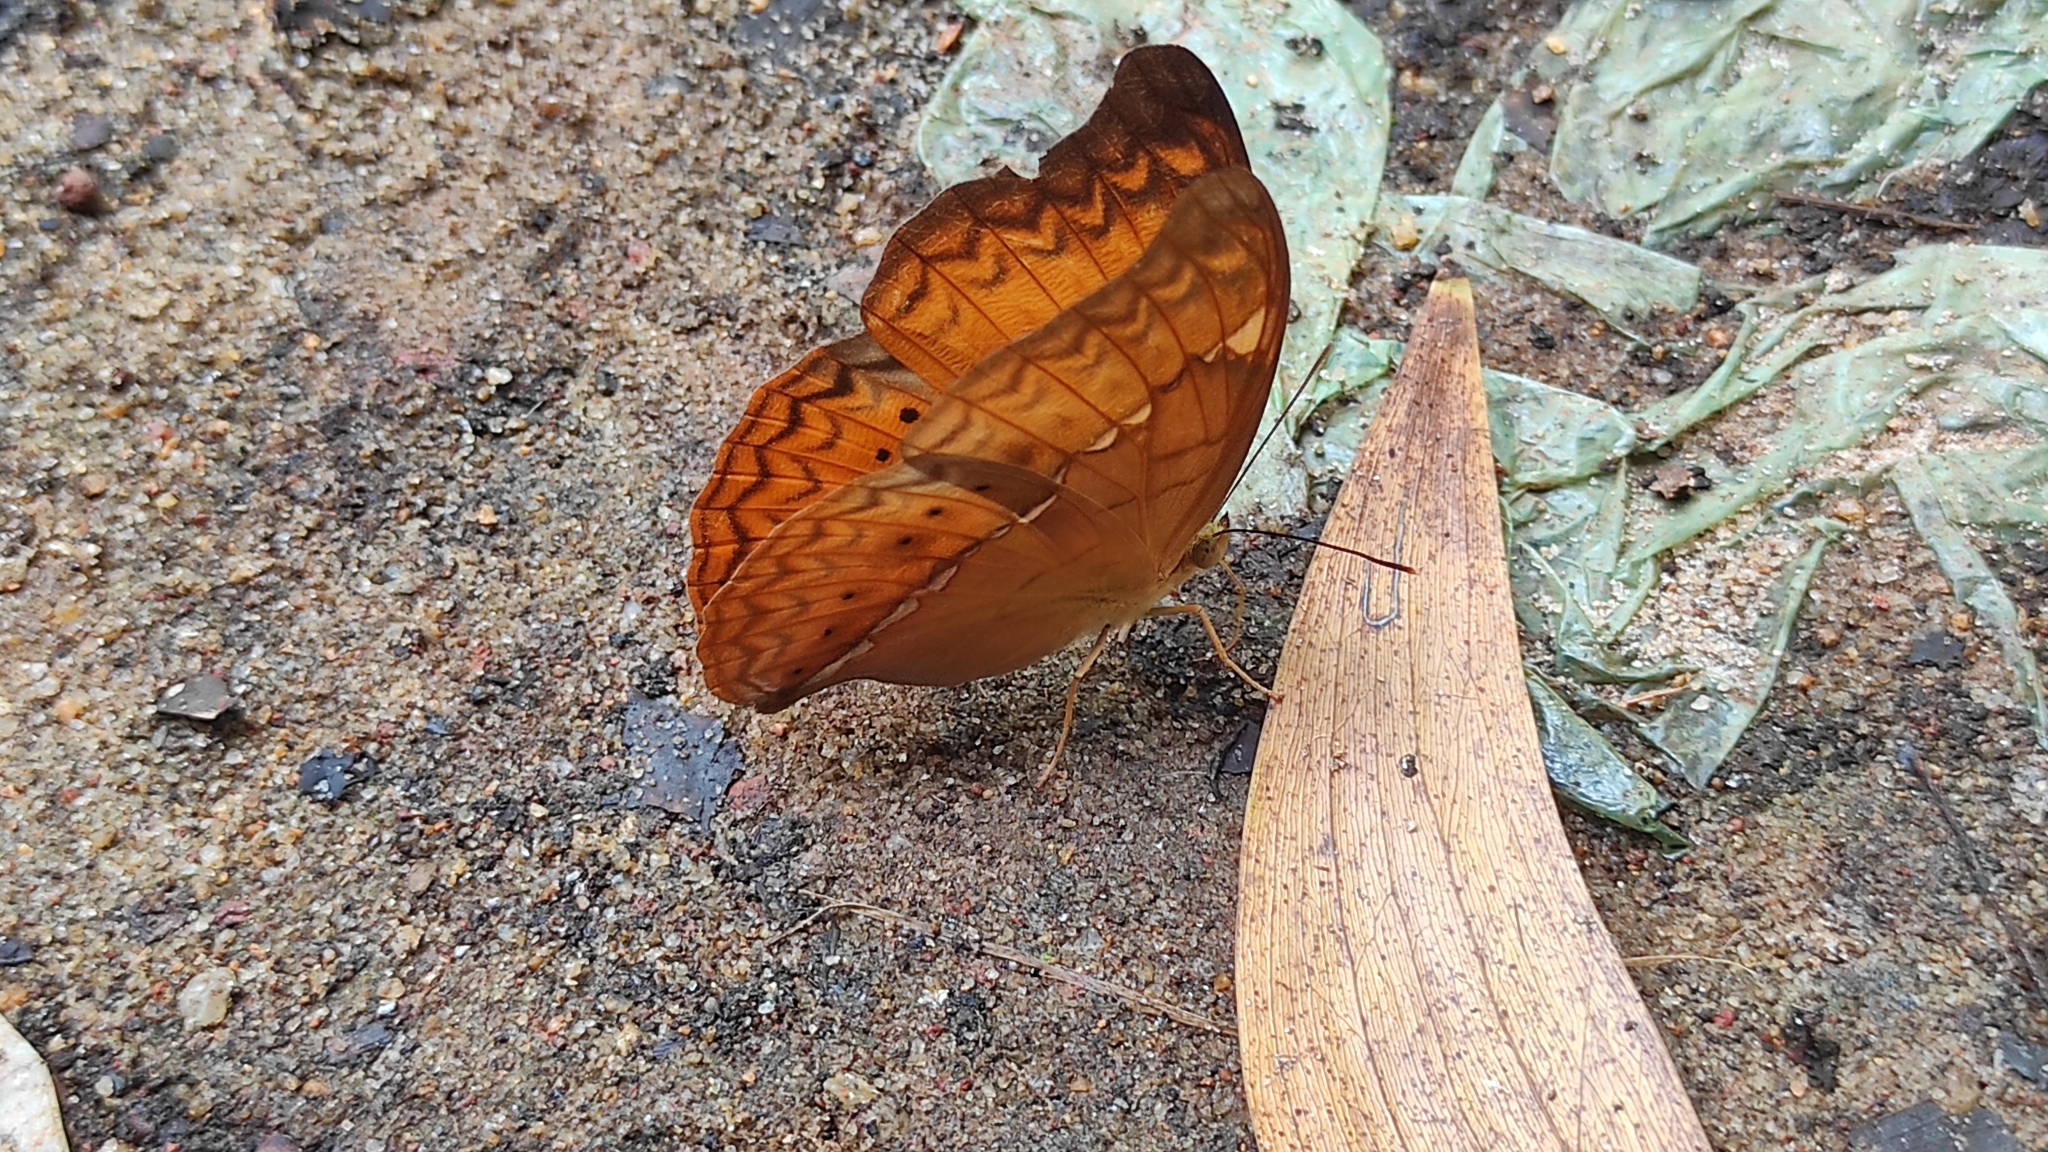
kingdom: Animalia
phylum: Arthropoda
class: Insecta
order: Lepidoptera
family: Nymphalidae
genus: Cirrochroa
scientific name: Cirrochroa thais
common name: Tamil yeoman
